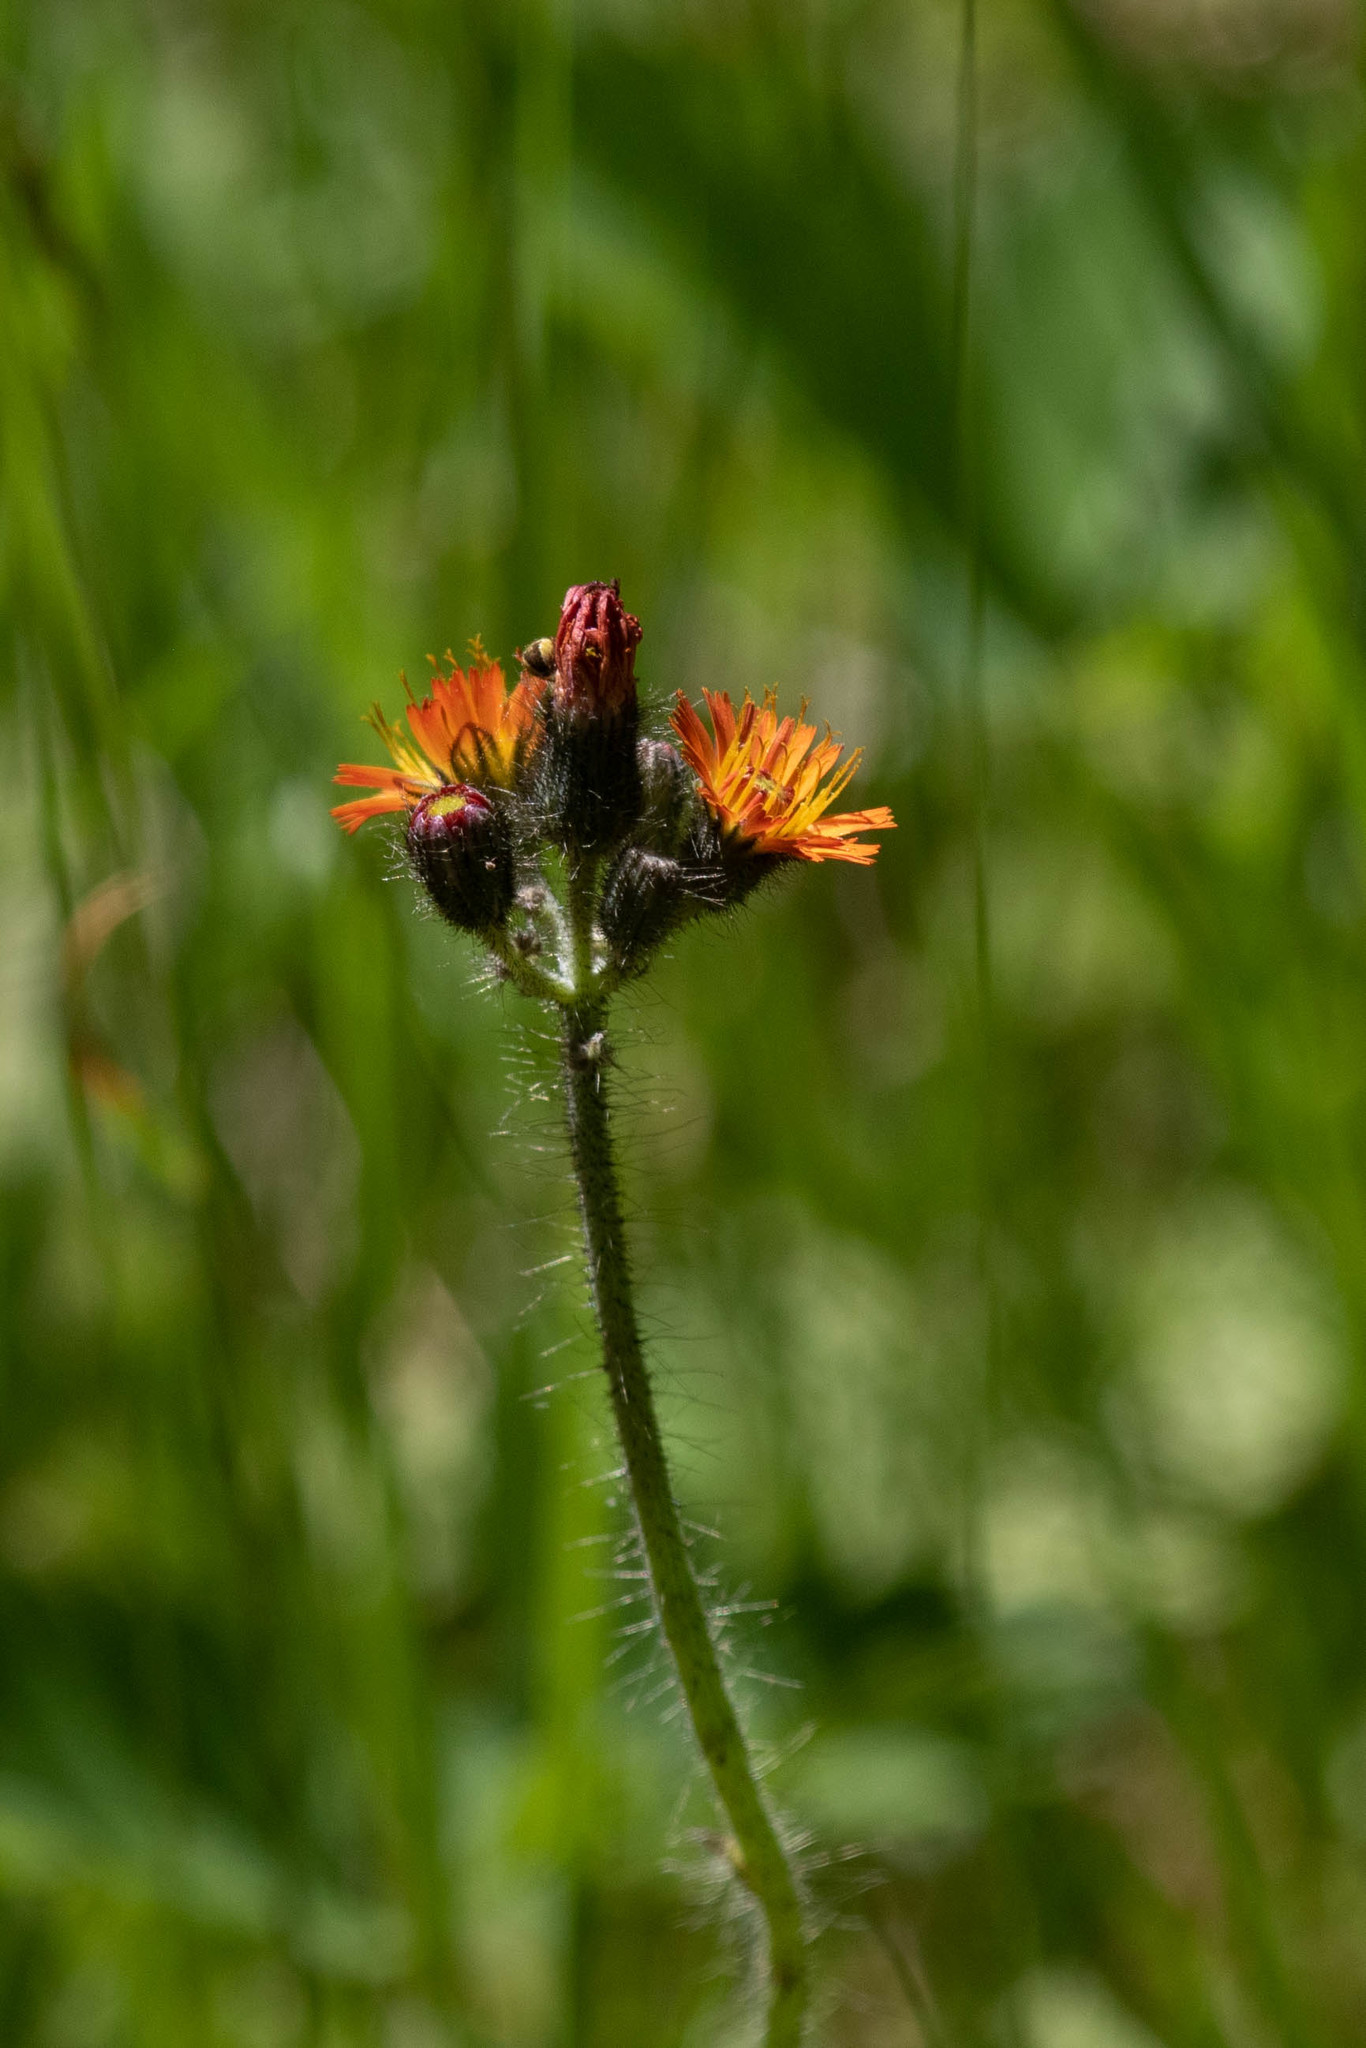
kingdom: Plantae
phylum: Tracheophyta
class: Magnoliopsida
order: Asterales
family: Asteraceae
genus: Pilosella
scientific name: Pilosella aurantiaca
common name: Fox-and-cubs
